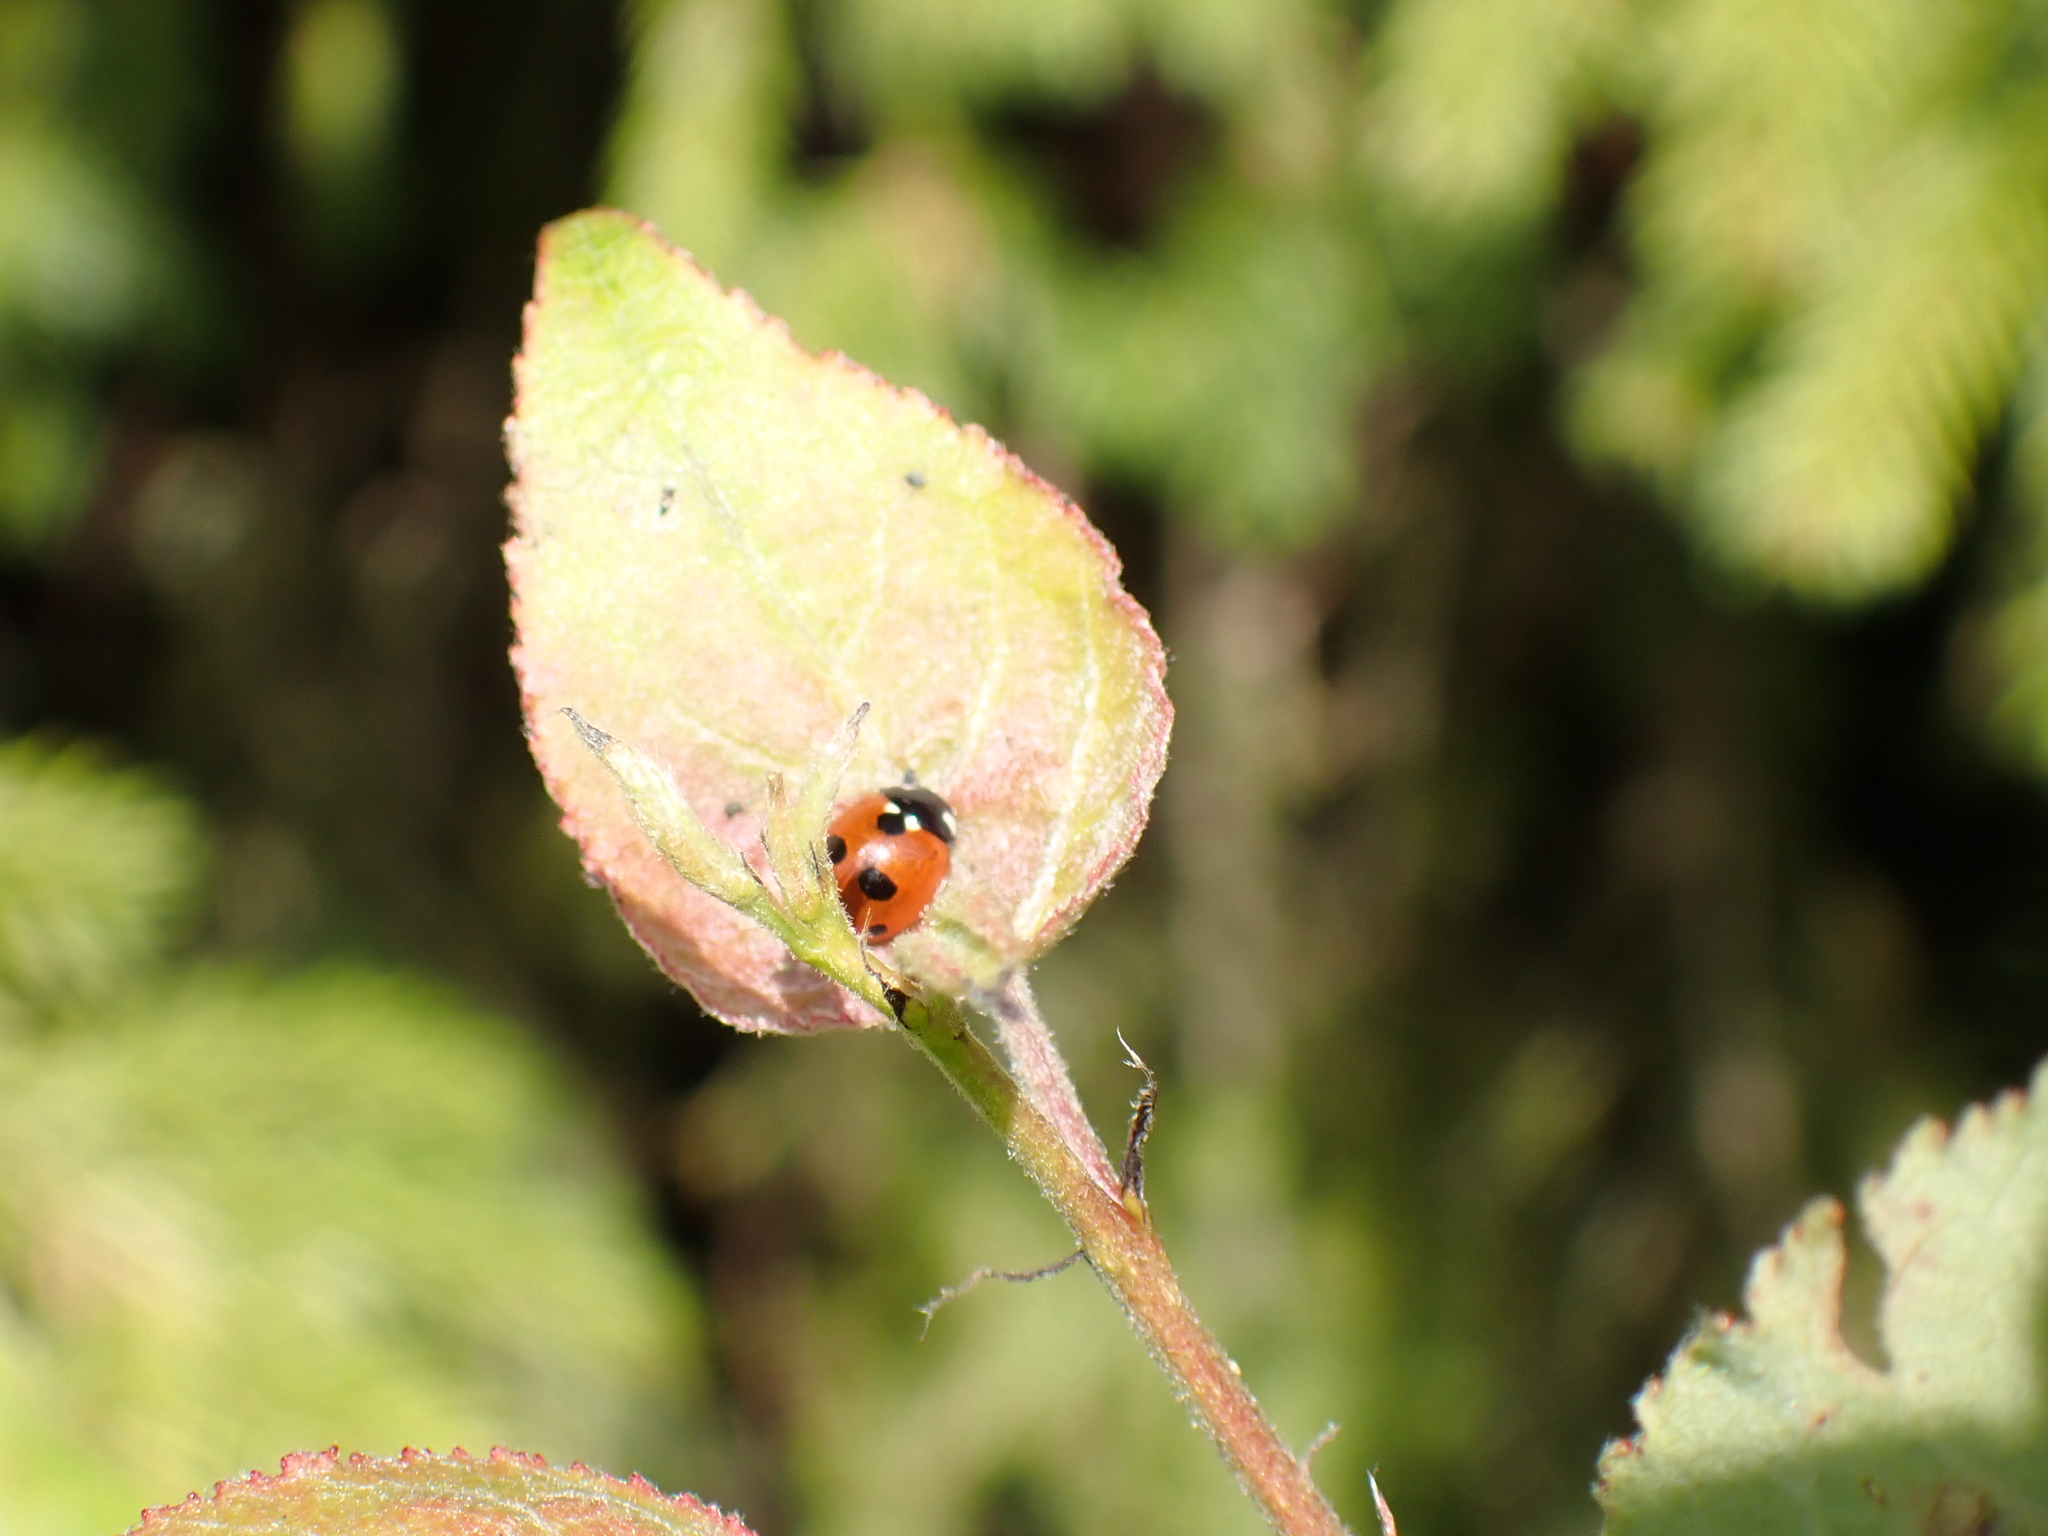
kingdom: Animalia
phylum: Arthropoda
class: Insecta
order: Coleoptera
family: Coccinellidae
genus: Coccinella
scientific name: Coccinella quinquepunctata
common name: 5-spot ladybird
